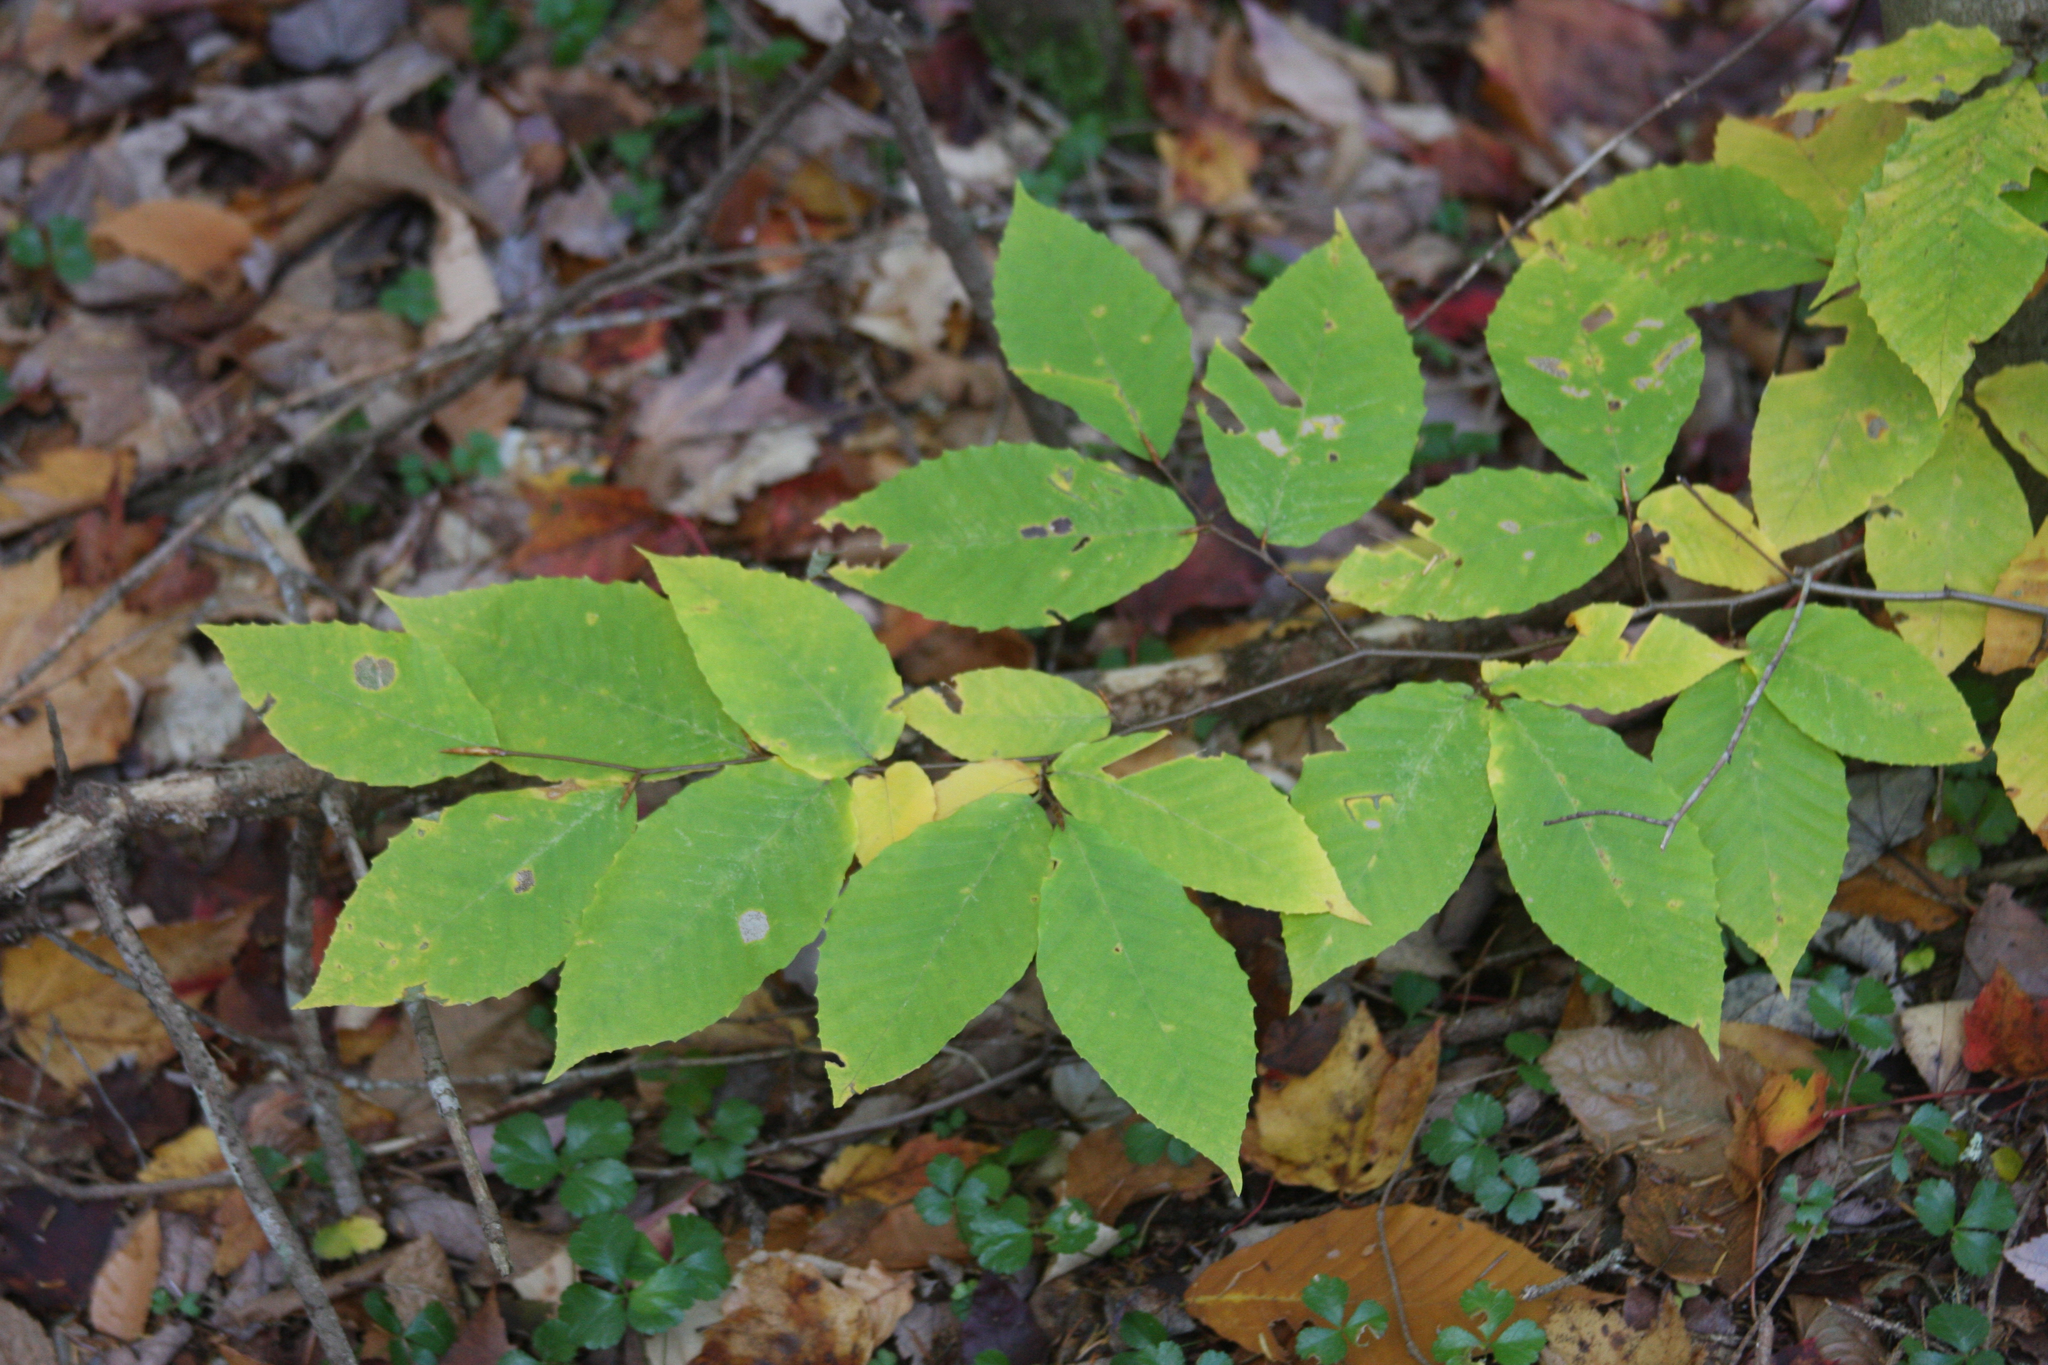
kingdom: Plantae
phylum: Tracheophyta
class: Magnoliopsida
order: Fagales
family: Fagaceae
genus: Fagus
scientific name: Fagus grandifolia
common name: American beech
